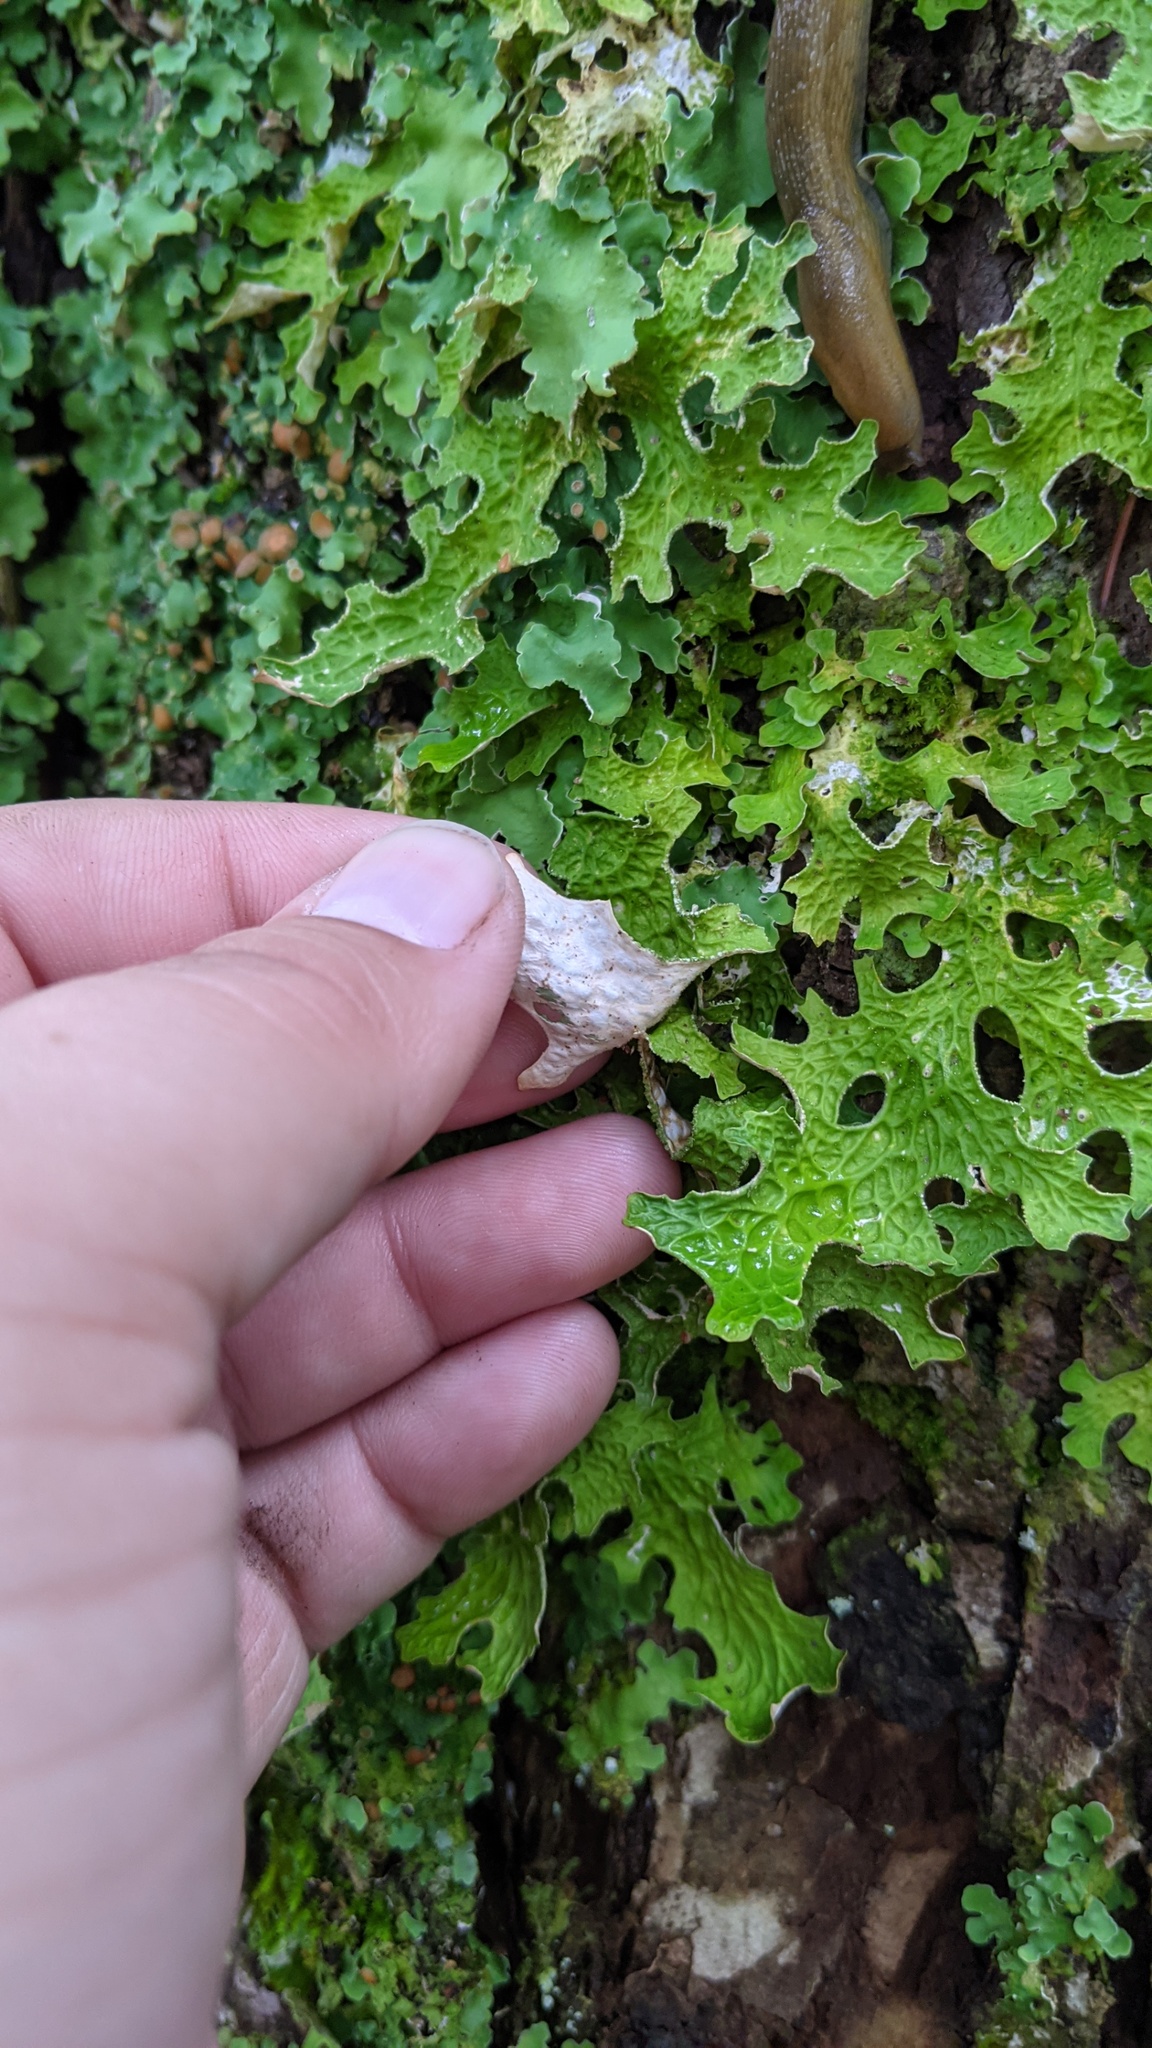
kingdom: Fungi
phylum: Ascomycota
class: Lecanoromycetes
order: Peltigerales
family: Lobariaceae
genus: Lobaria
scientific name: Lobaria pulmonaria
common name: Lungwort
